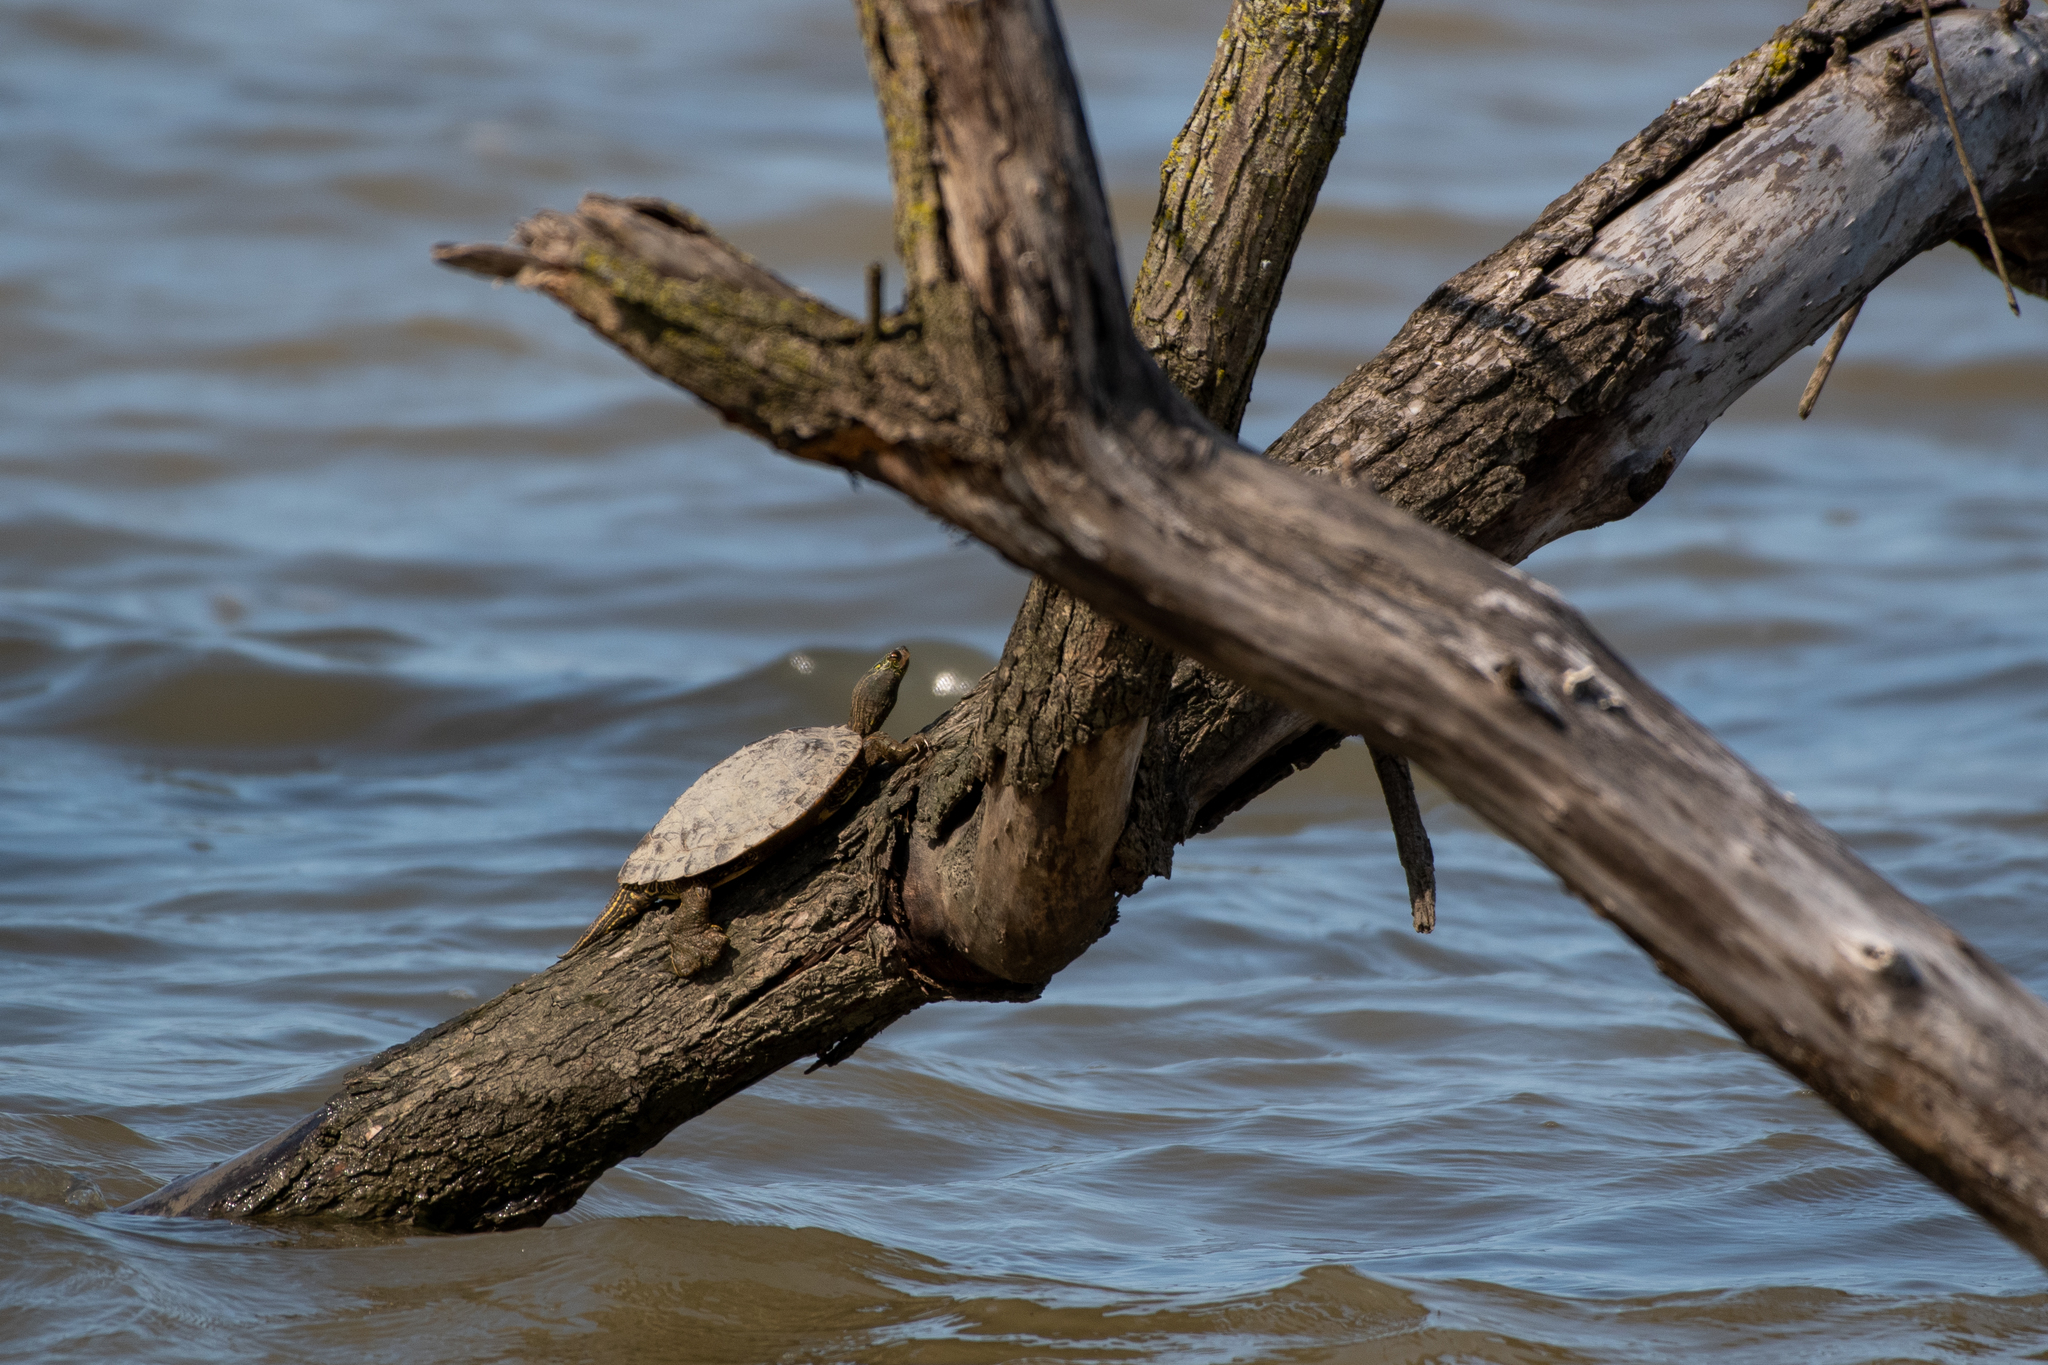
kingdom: Animalia
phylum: Chordata
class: Testudines
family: Emydidae
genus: Graptemys
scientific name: Graptemys geographica
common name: Common map turtle
